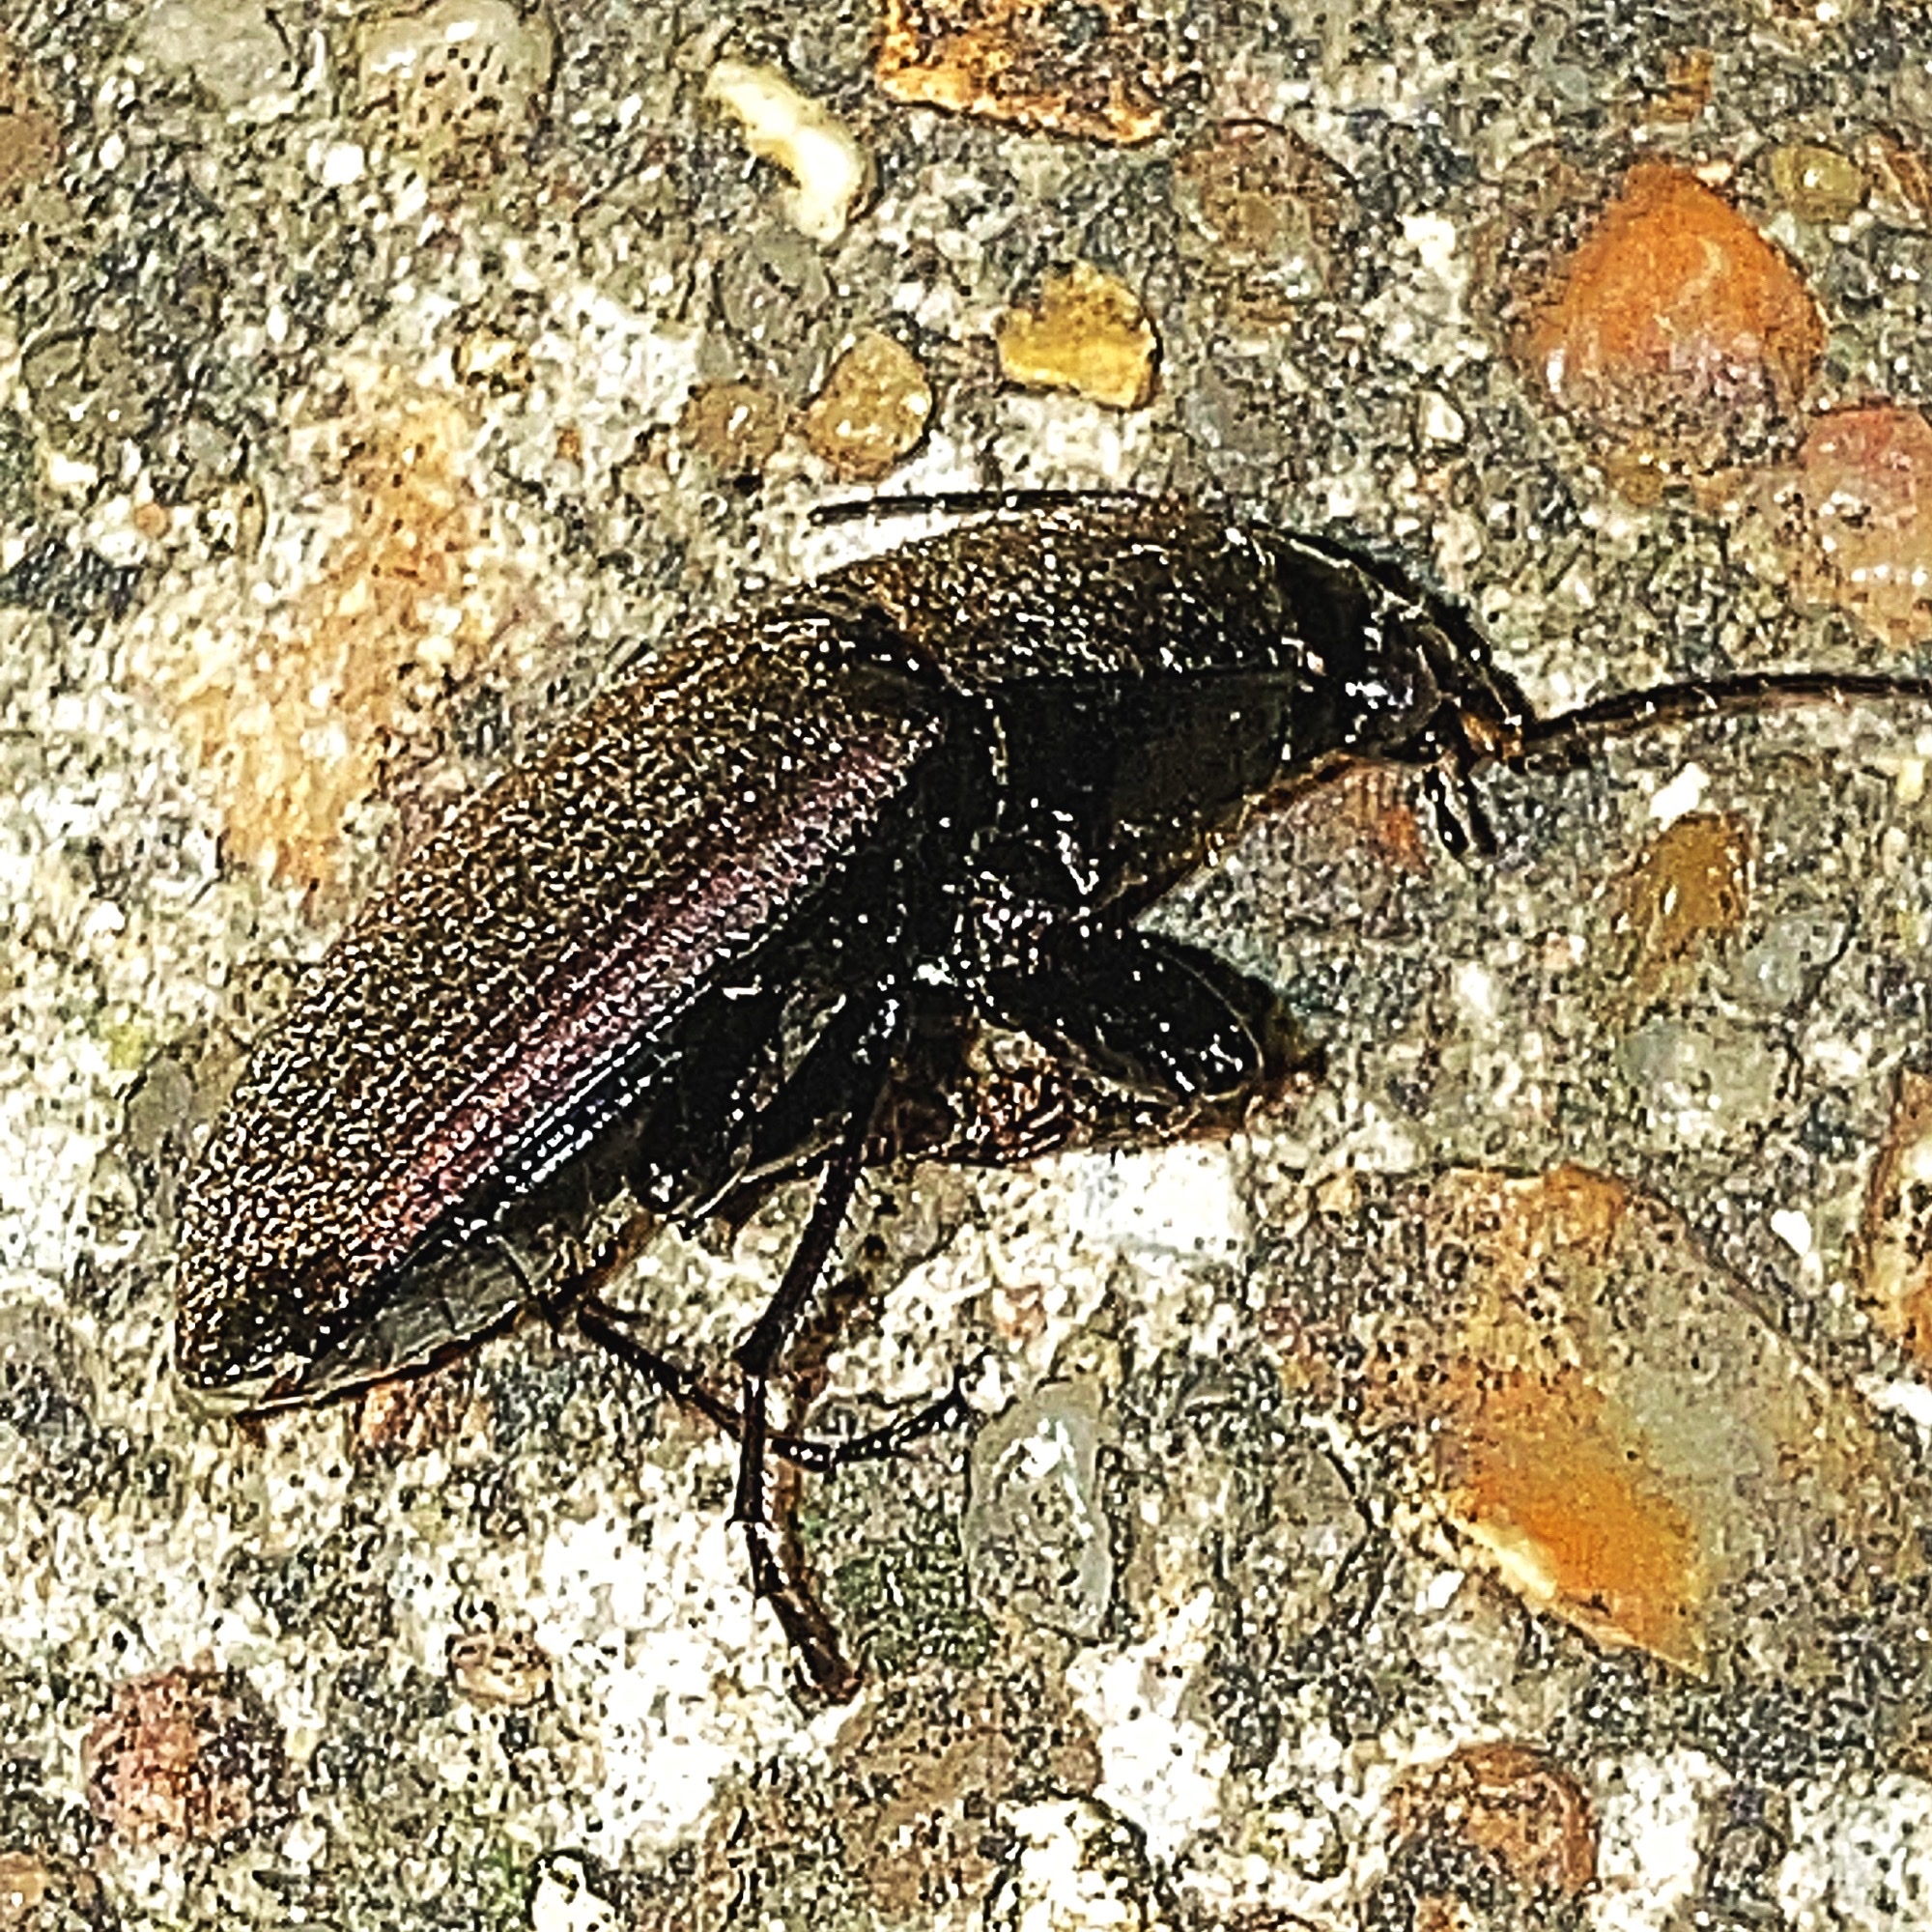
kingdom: Animalia
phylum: Arthropoda
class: Insecta
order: Coleoptera
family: Carabidae
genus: Chlaenius
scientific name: Chlaenius tomentosus
